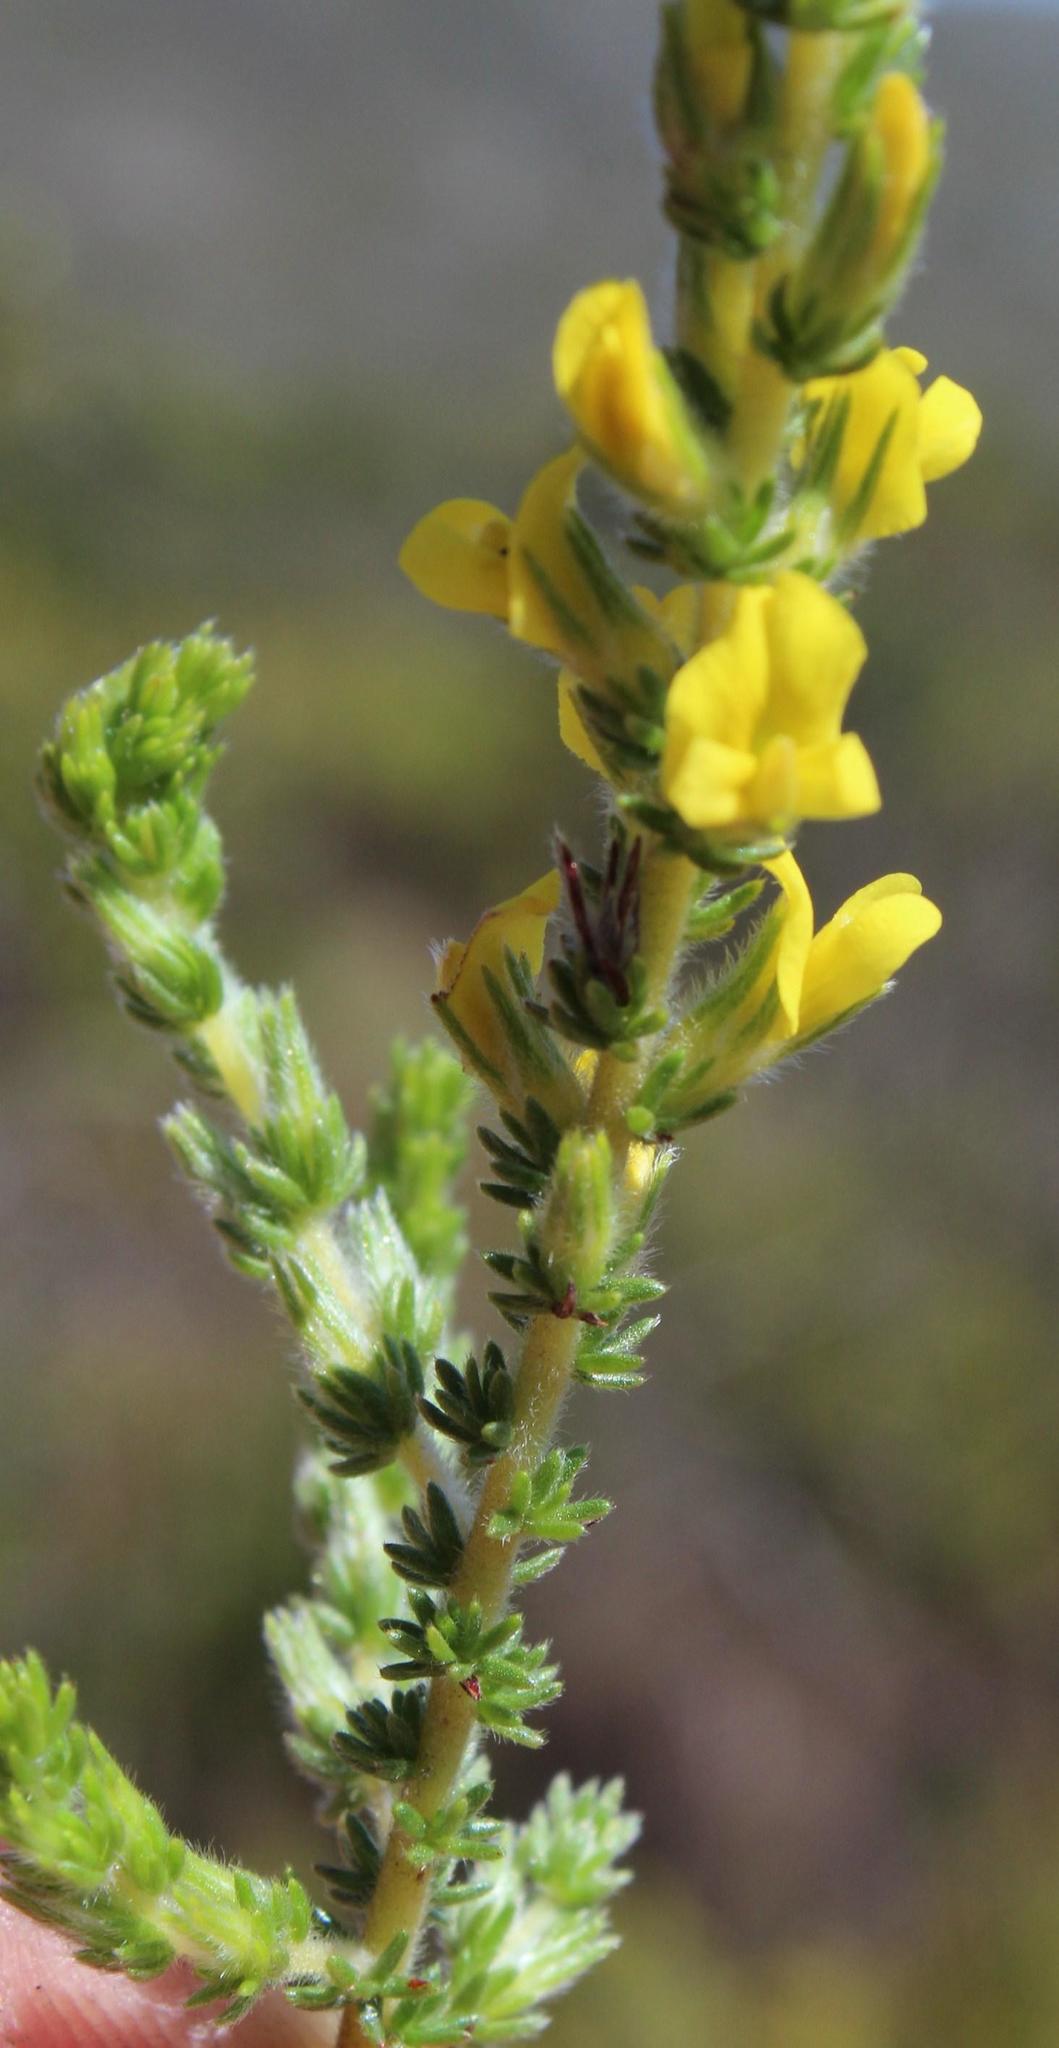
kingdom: Plantae
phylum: Tracheophyta
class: Magnoliopsida
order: Fabales
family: Fabaceae
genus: Aspalathus
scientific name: Aspalathus ericifolia
